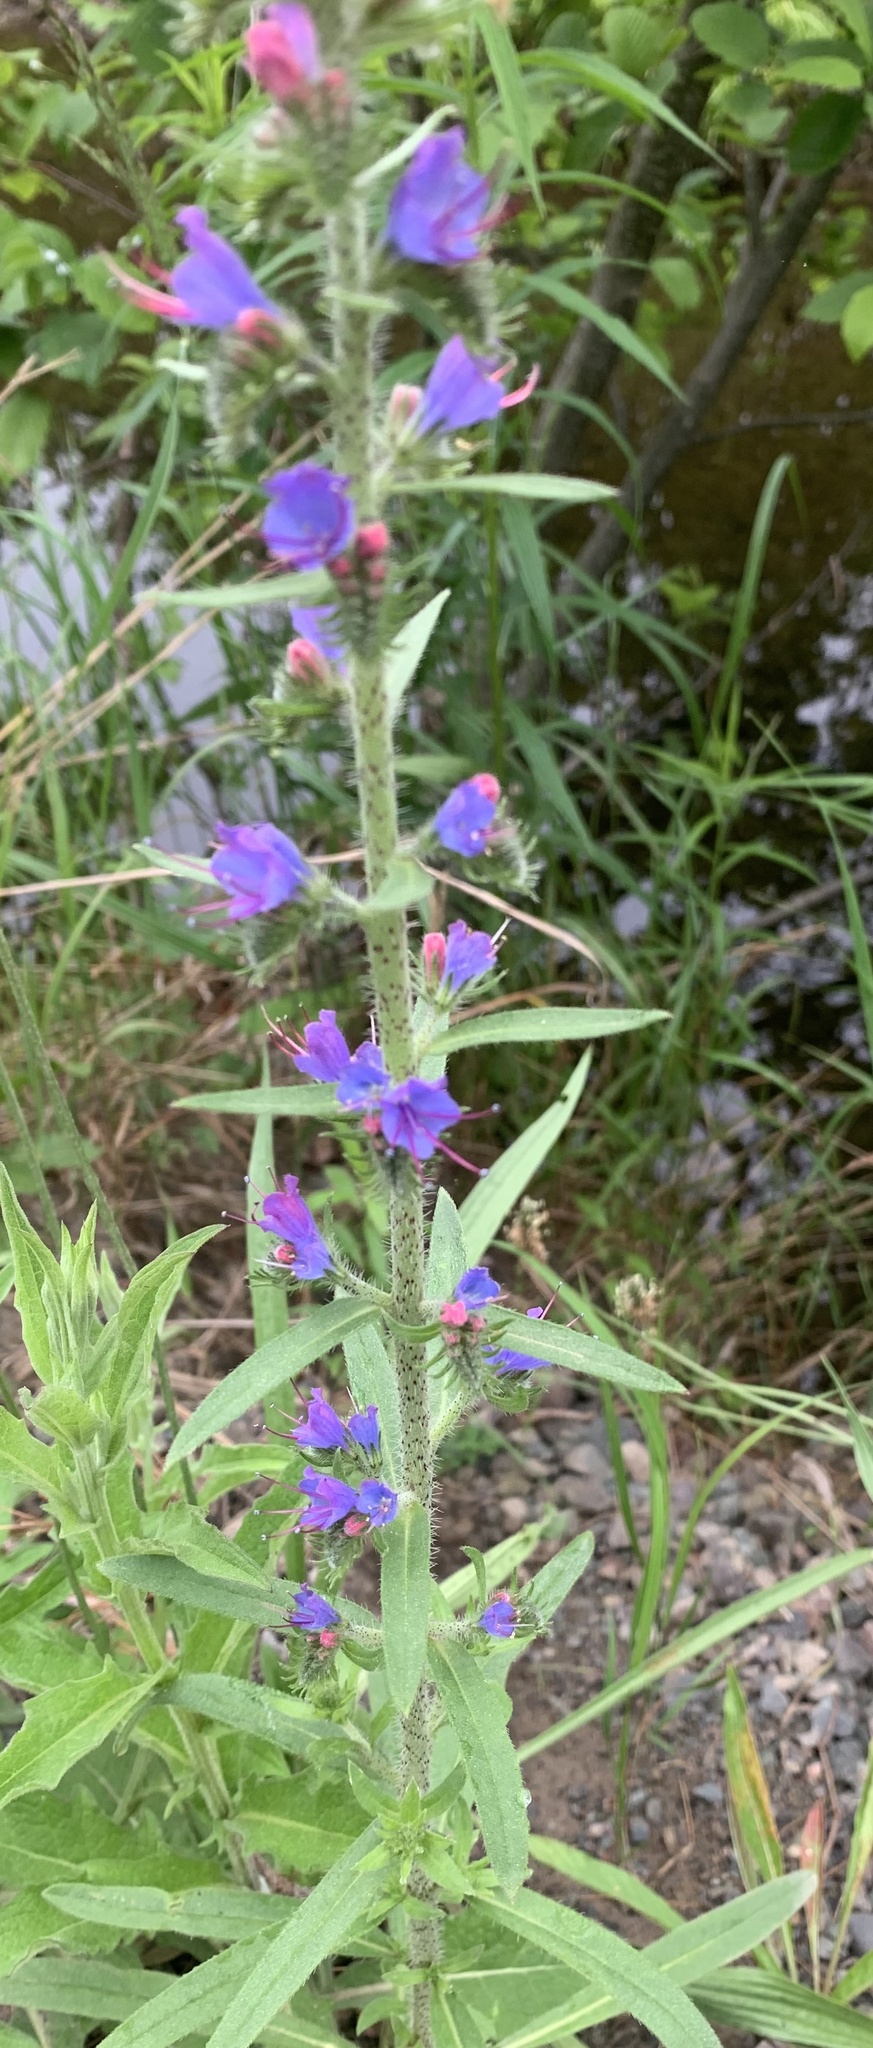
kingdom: Plantae
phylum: Tracheophyta
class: Magnoliopsida
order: Boraginales
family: Boraginaceae
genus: Echium
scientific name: Echium vulgare
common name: Common viper's bugloss
